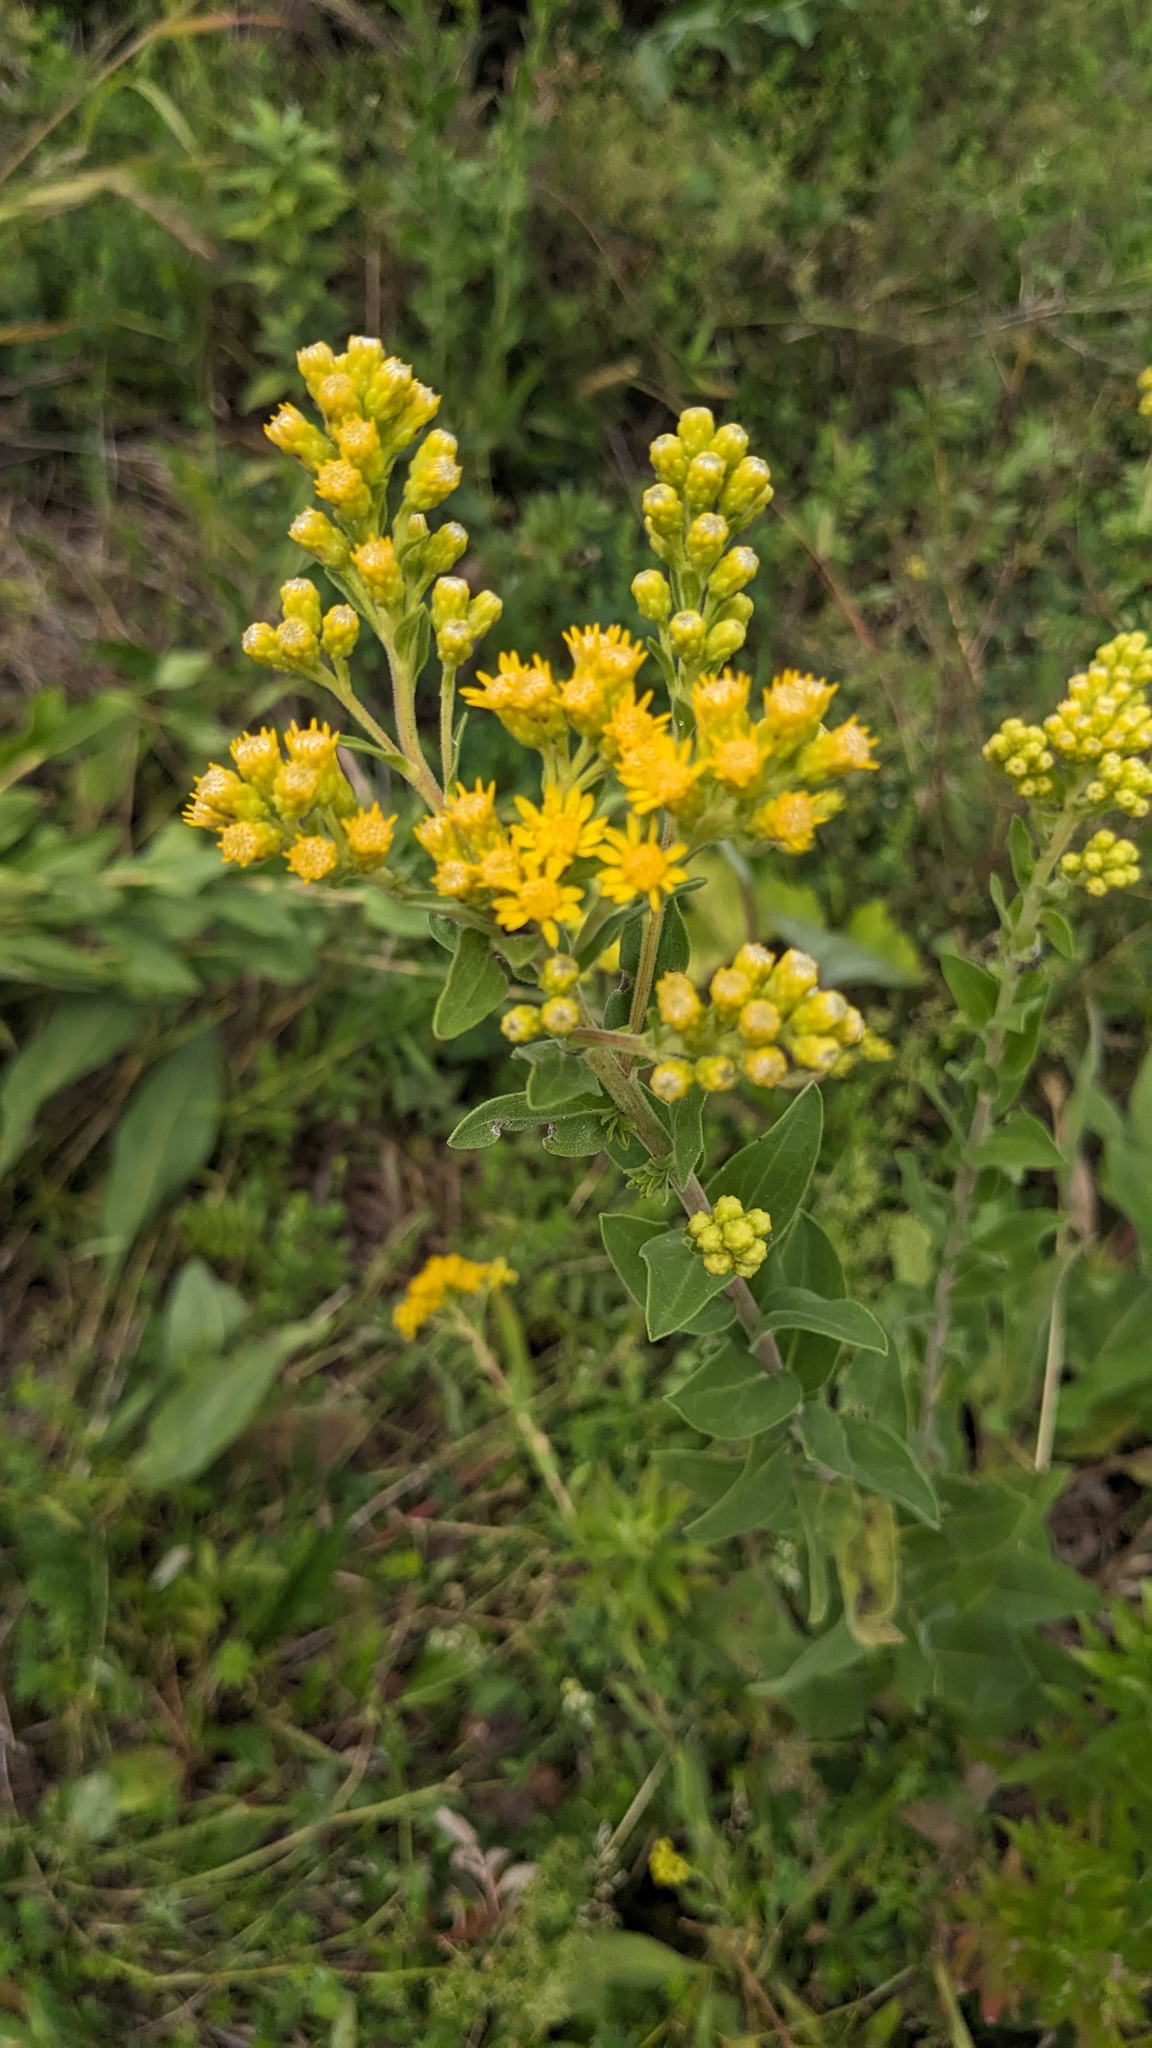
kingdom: Plantae
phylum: Tracheophyta
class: Magnoliopsida
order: Asterales
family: Asteraceae
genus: Solidago
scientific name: Solidago rigida
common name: Rigid goldenrod
